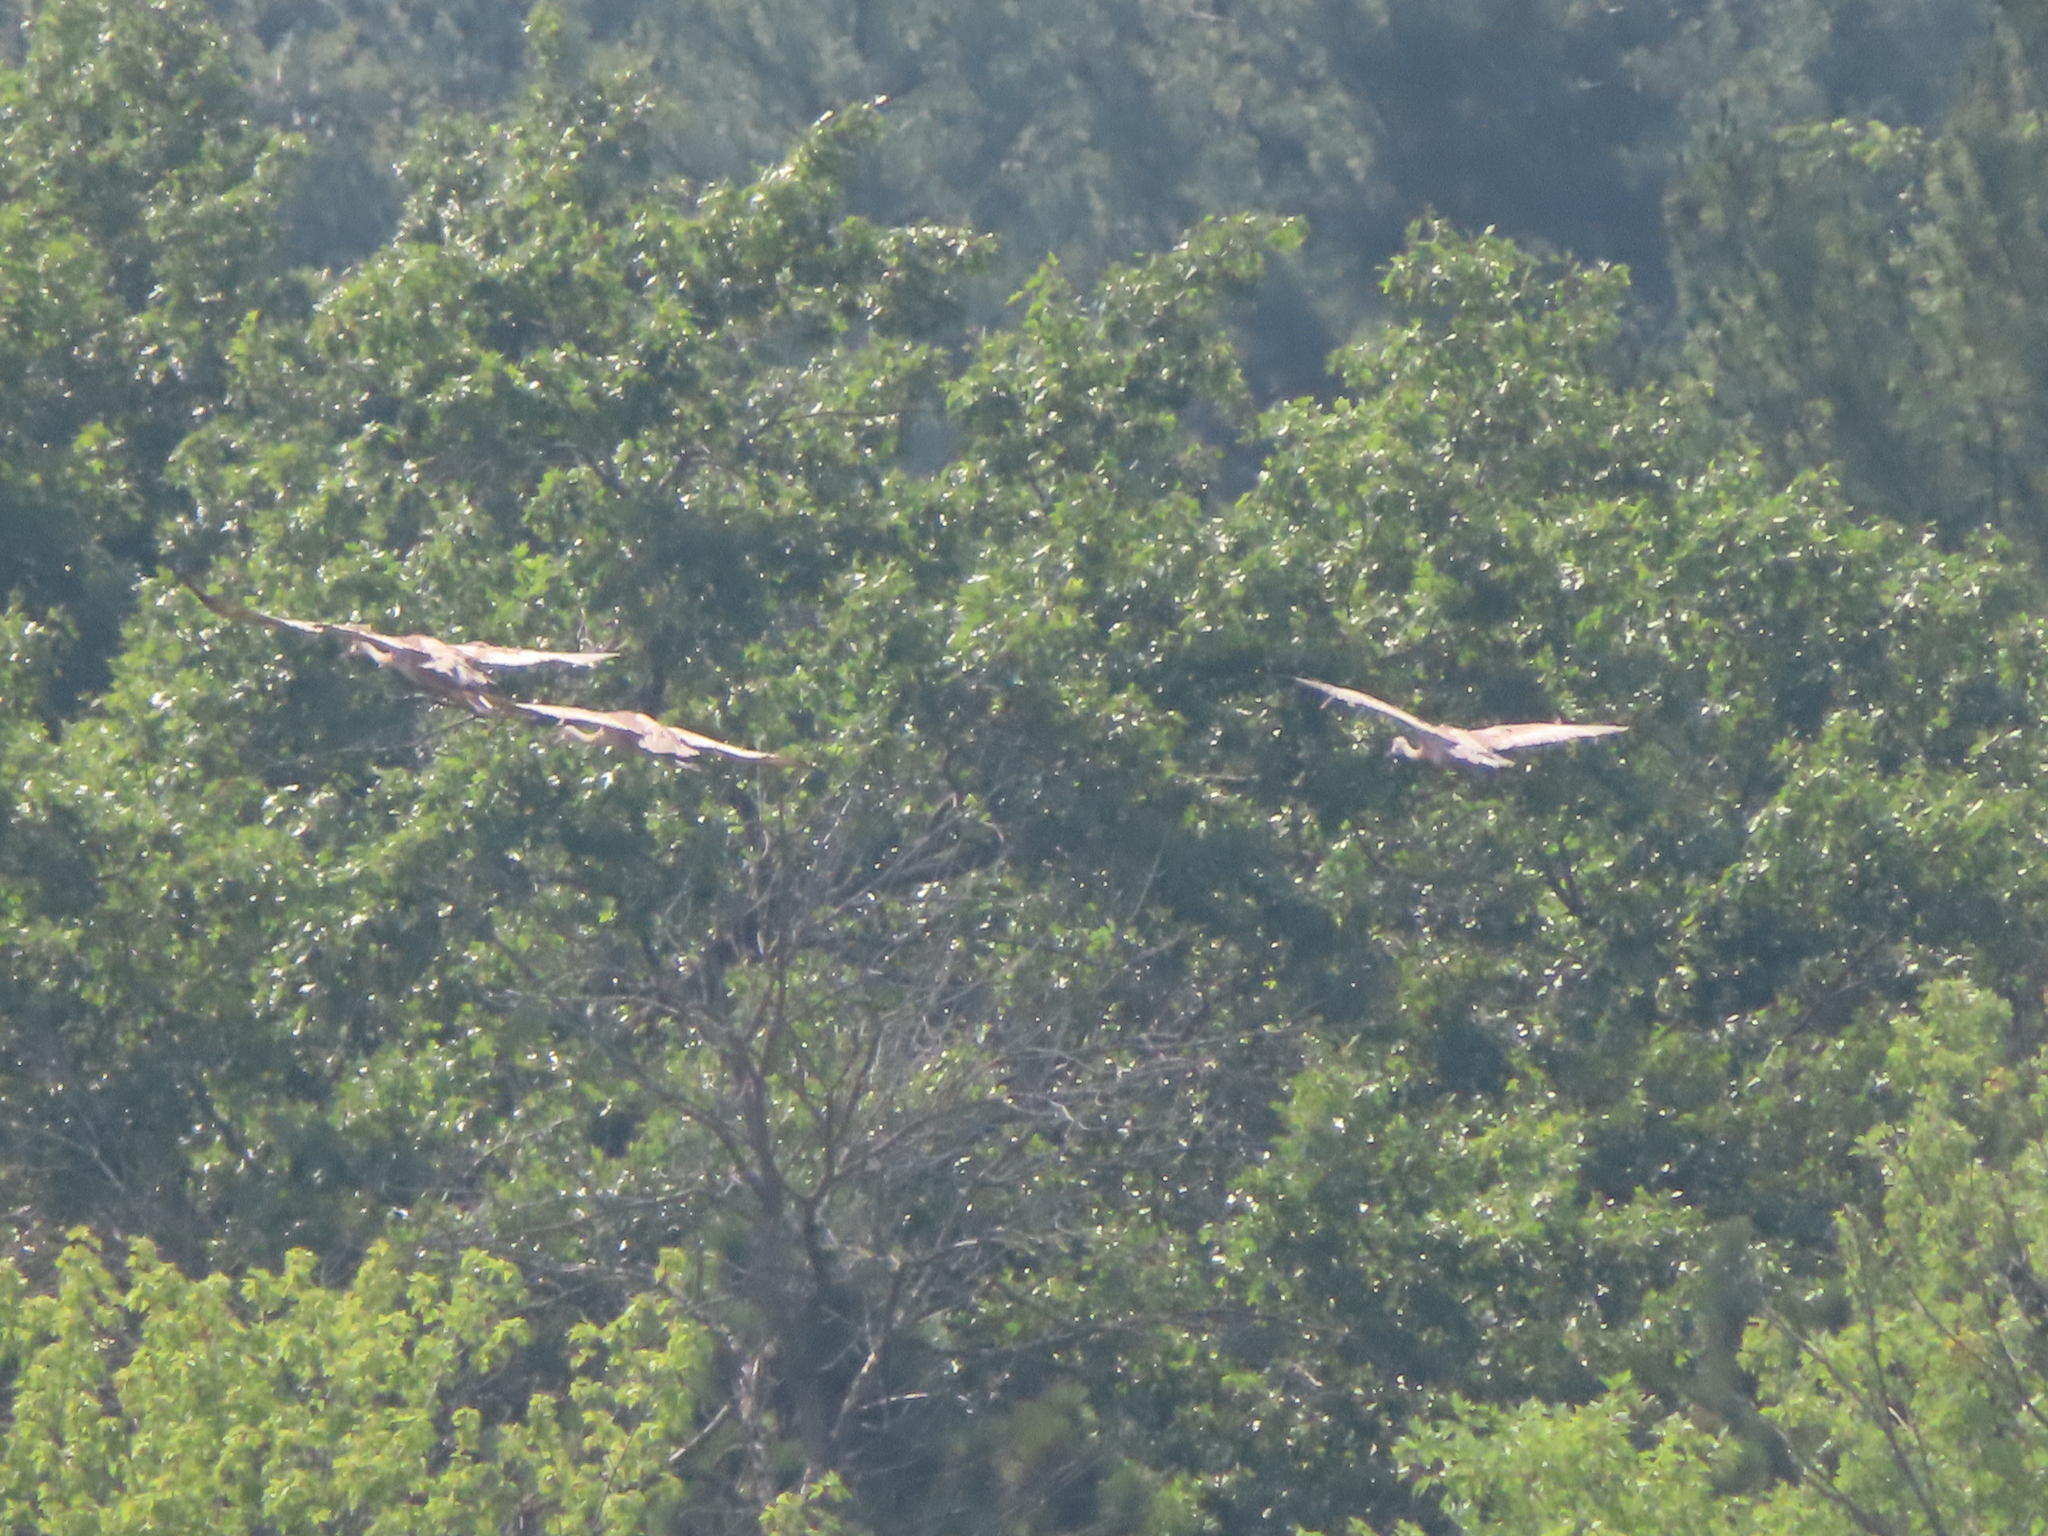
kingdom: Animalia
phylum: Chordata
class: Aves
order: Gruiformes
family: Gruidae
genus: Grus
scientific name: Grus canadensis
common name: Sandhill crane
